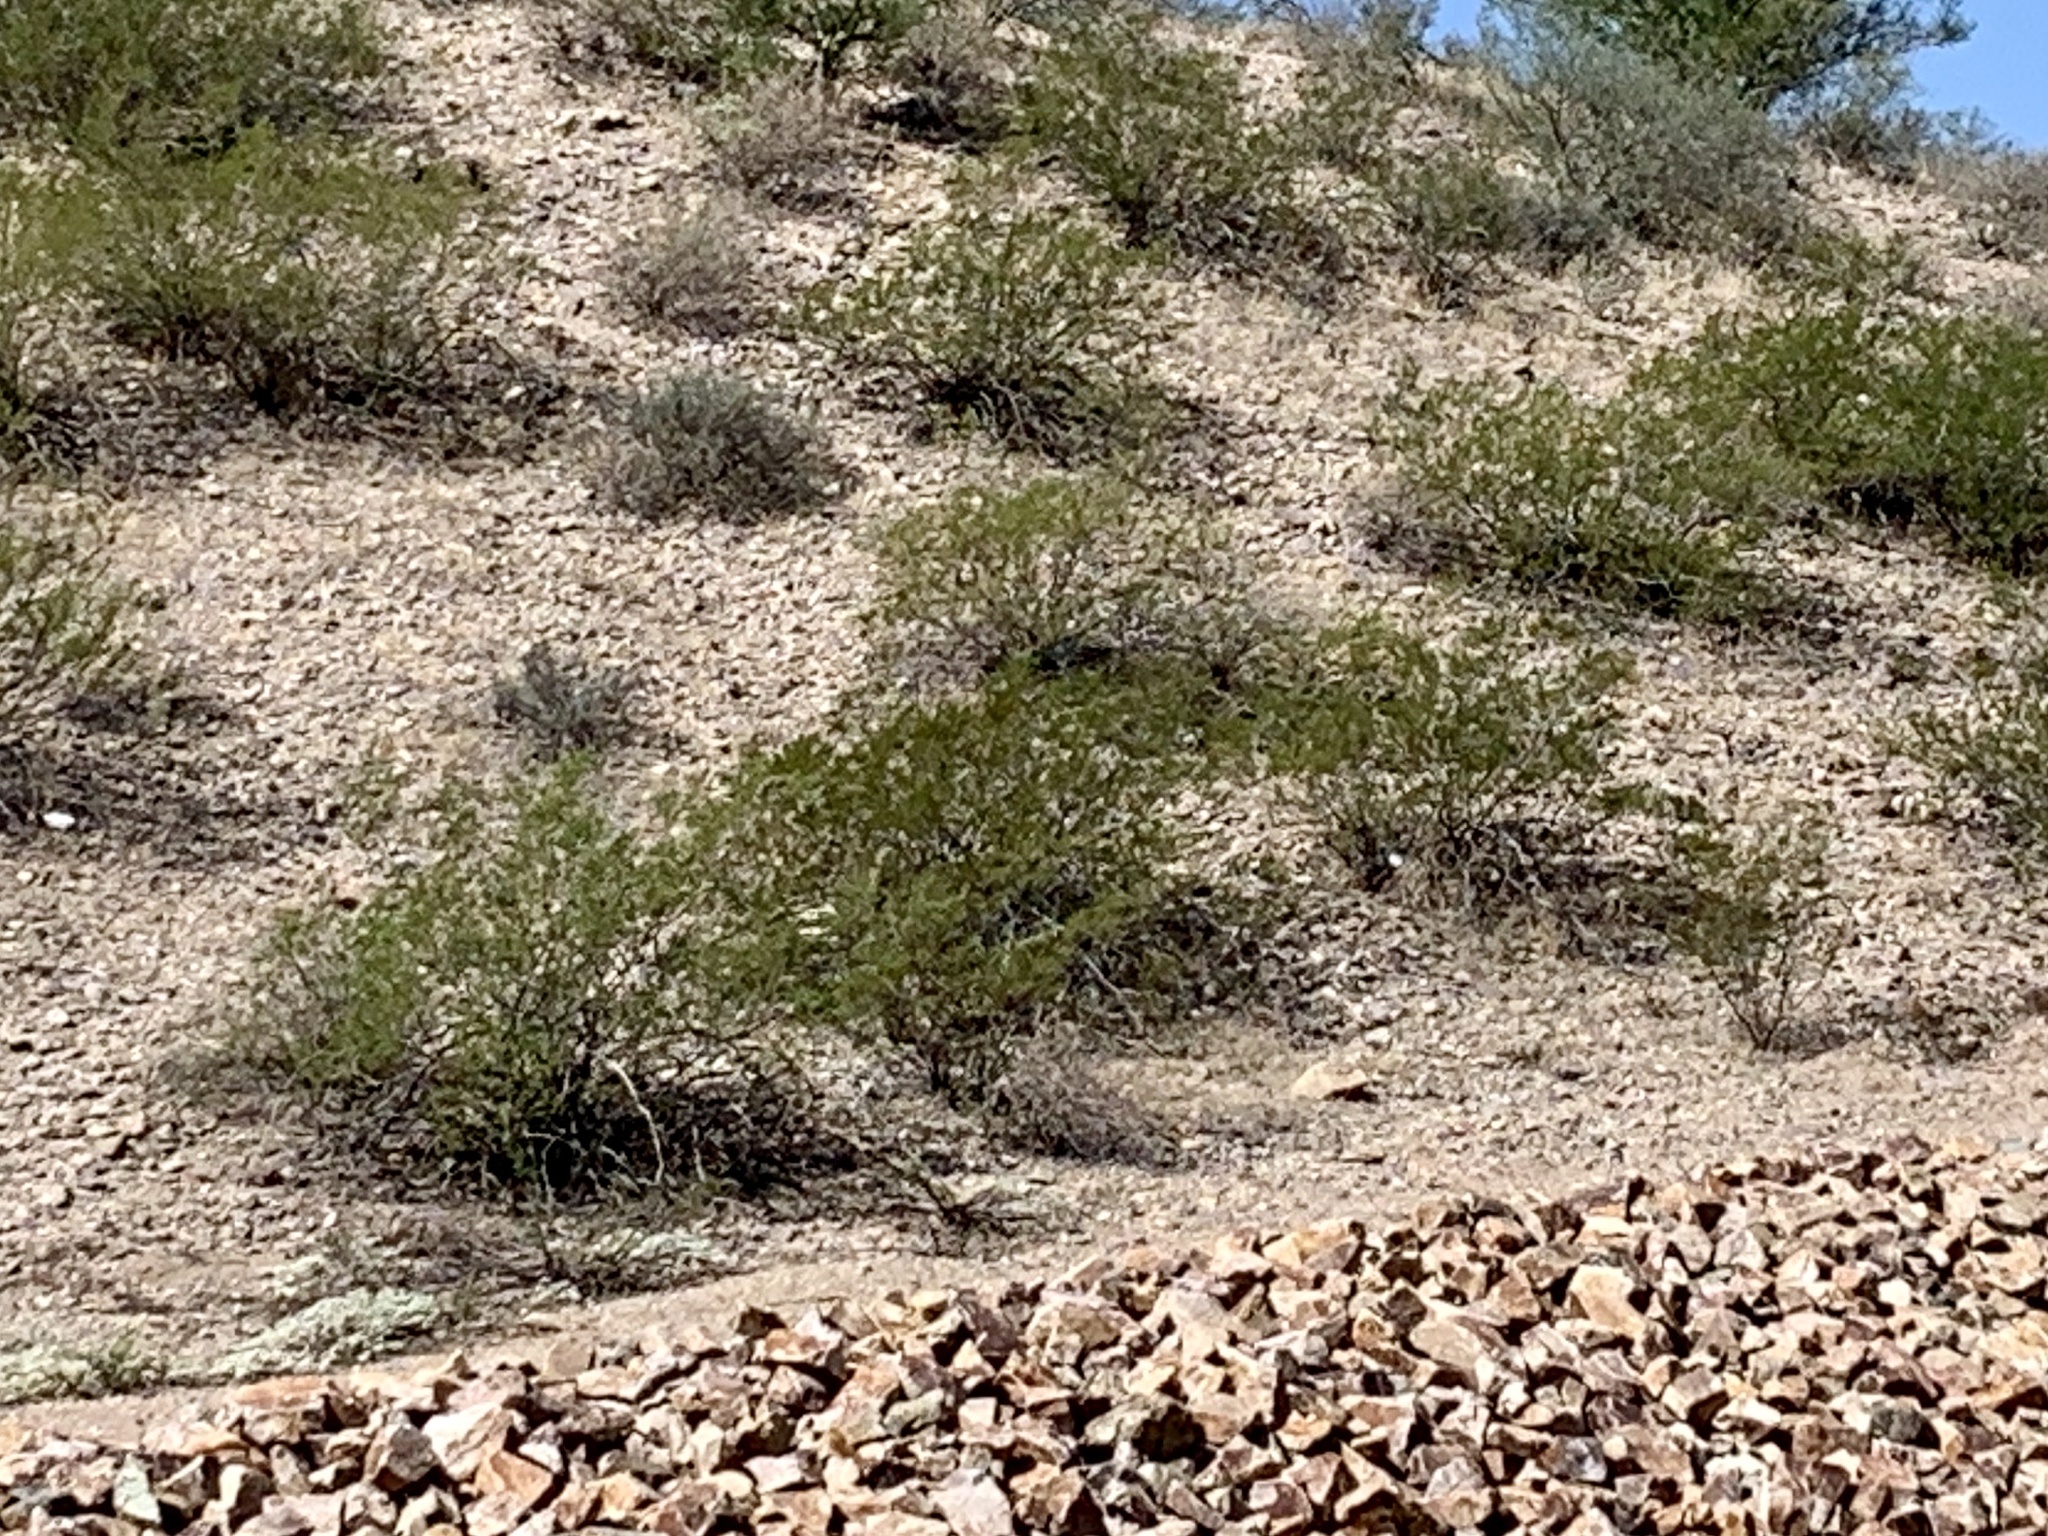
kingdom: Plantae
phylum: Tracheophyta
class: Magnoliopsida
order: Zygophyllales
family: Zygophyllaceae
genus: Larrea
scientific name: Larrea tridentata
